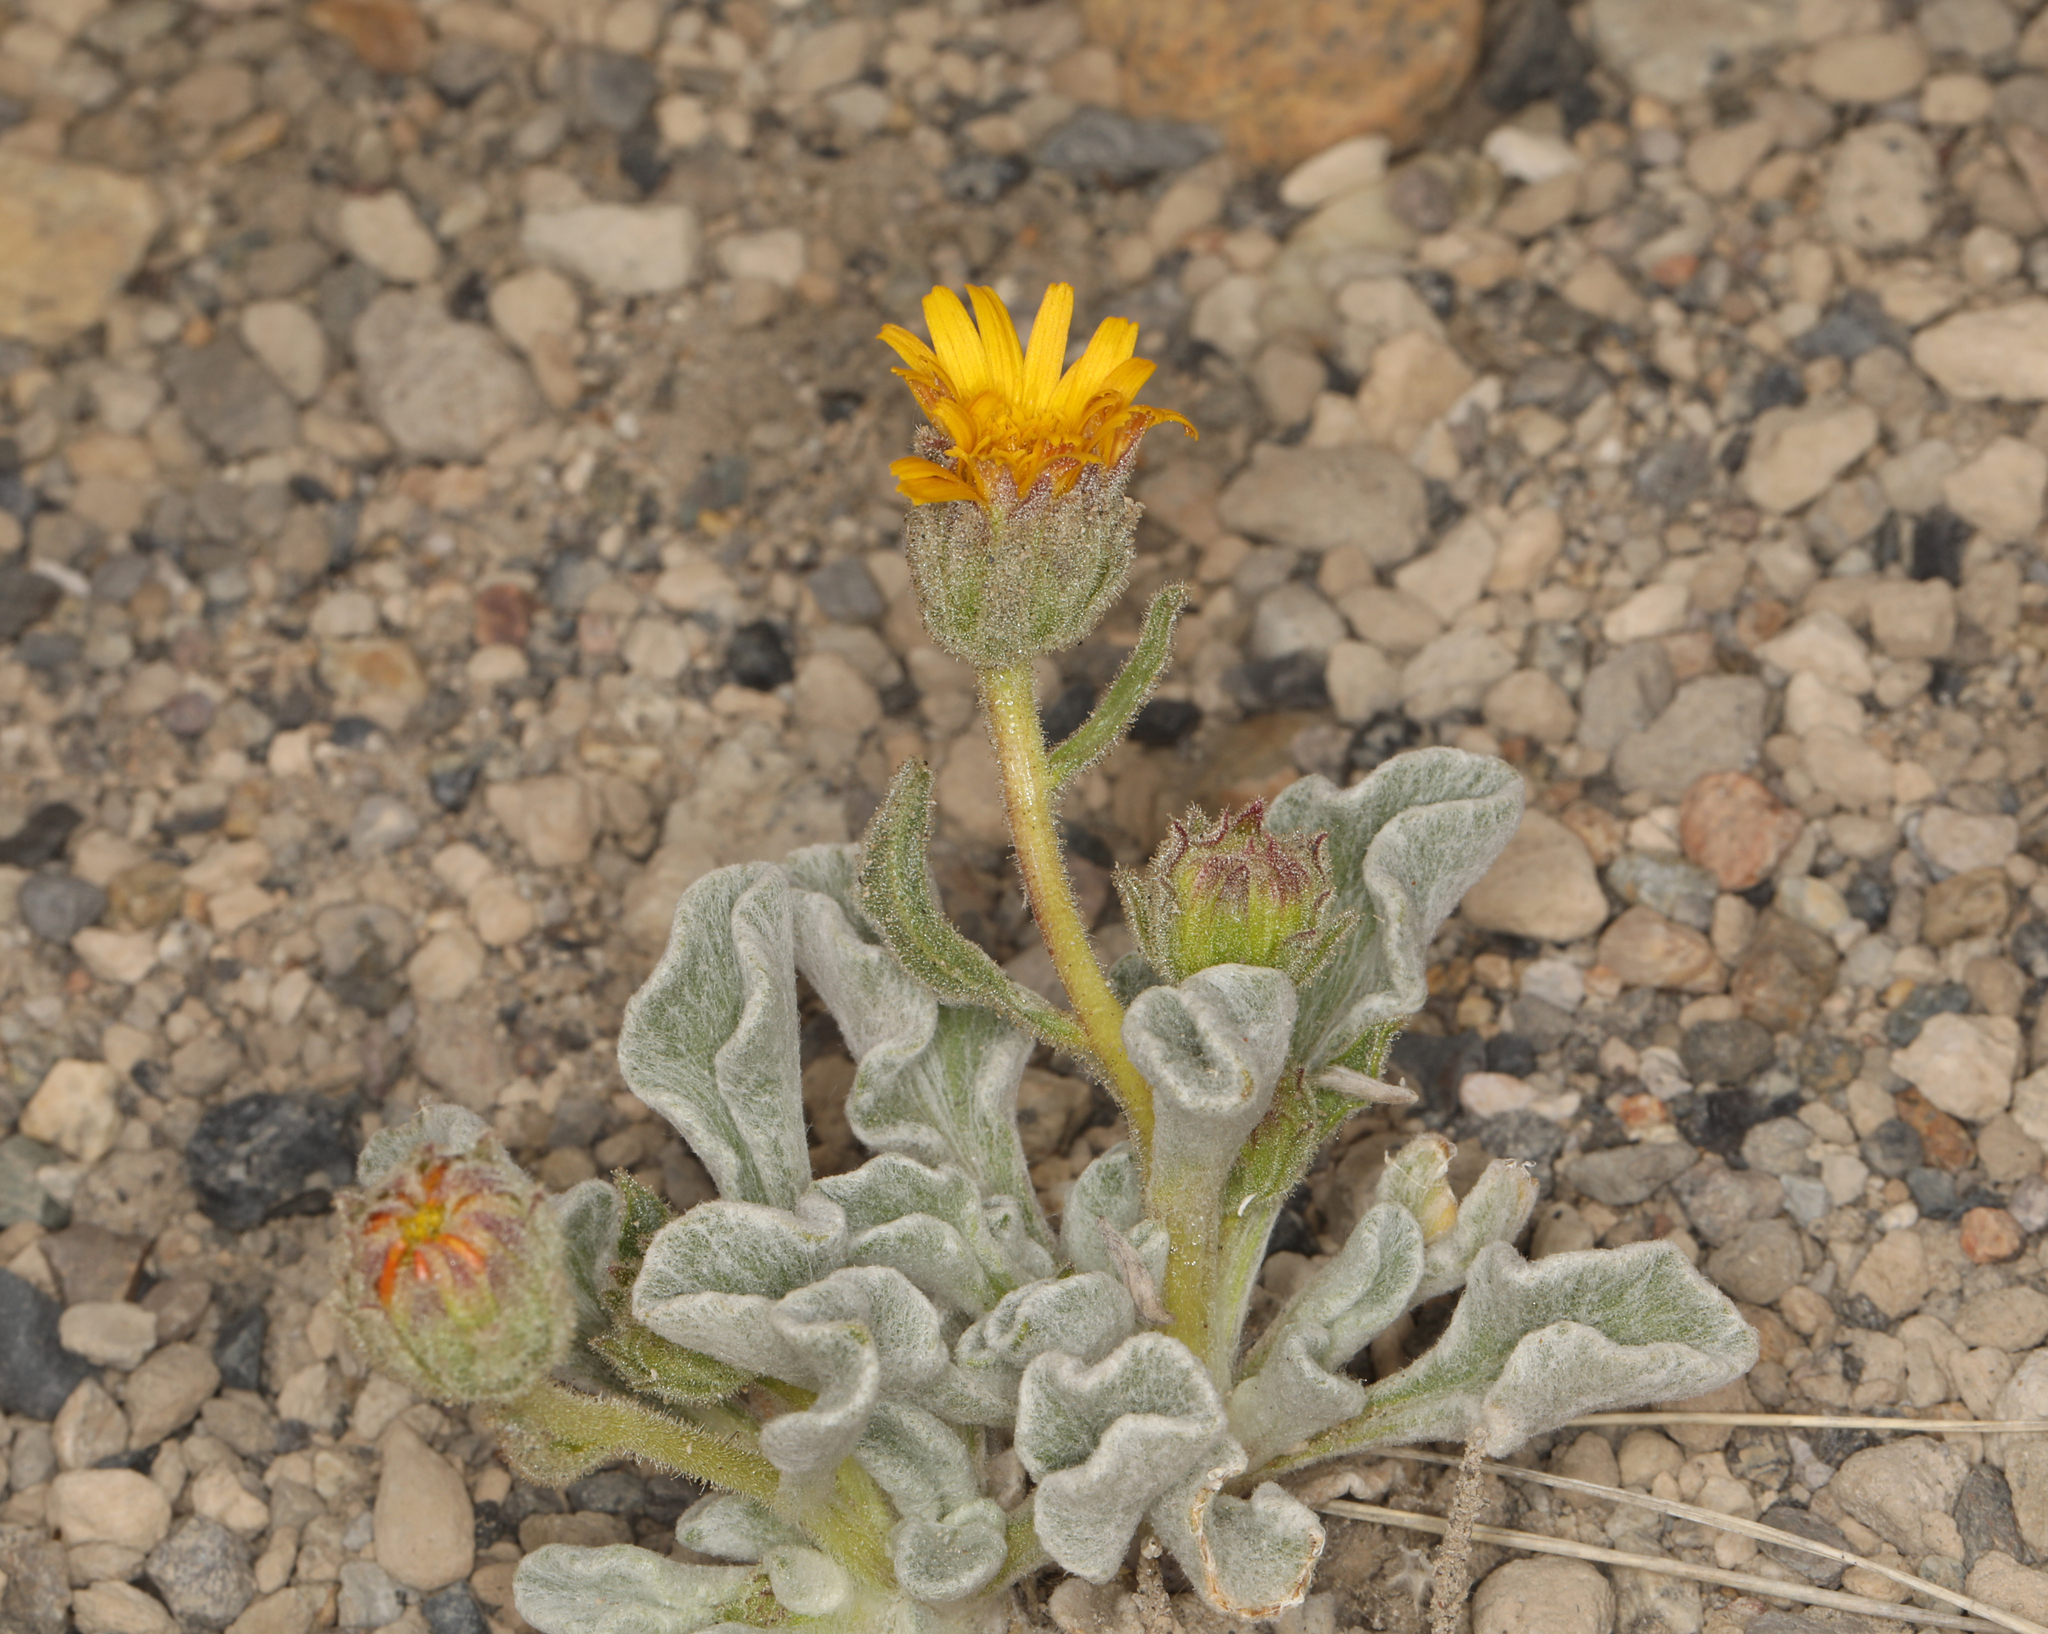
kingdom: Plantae
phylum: Tracheophyta
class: Magnoliopsida
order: Asterales
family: Asteraceae
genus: Hulsea
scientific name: Hulsea vestita
